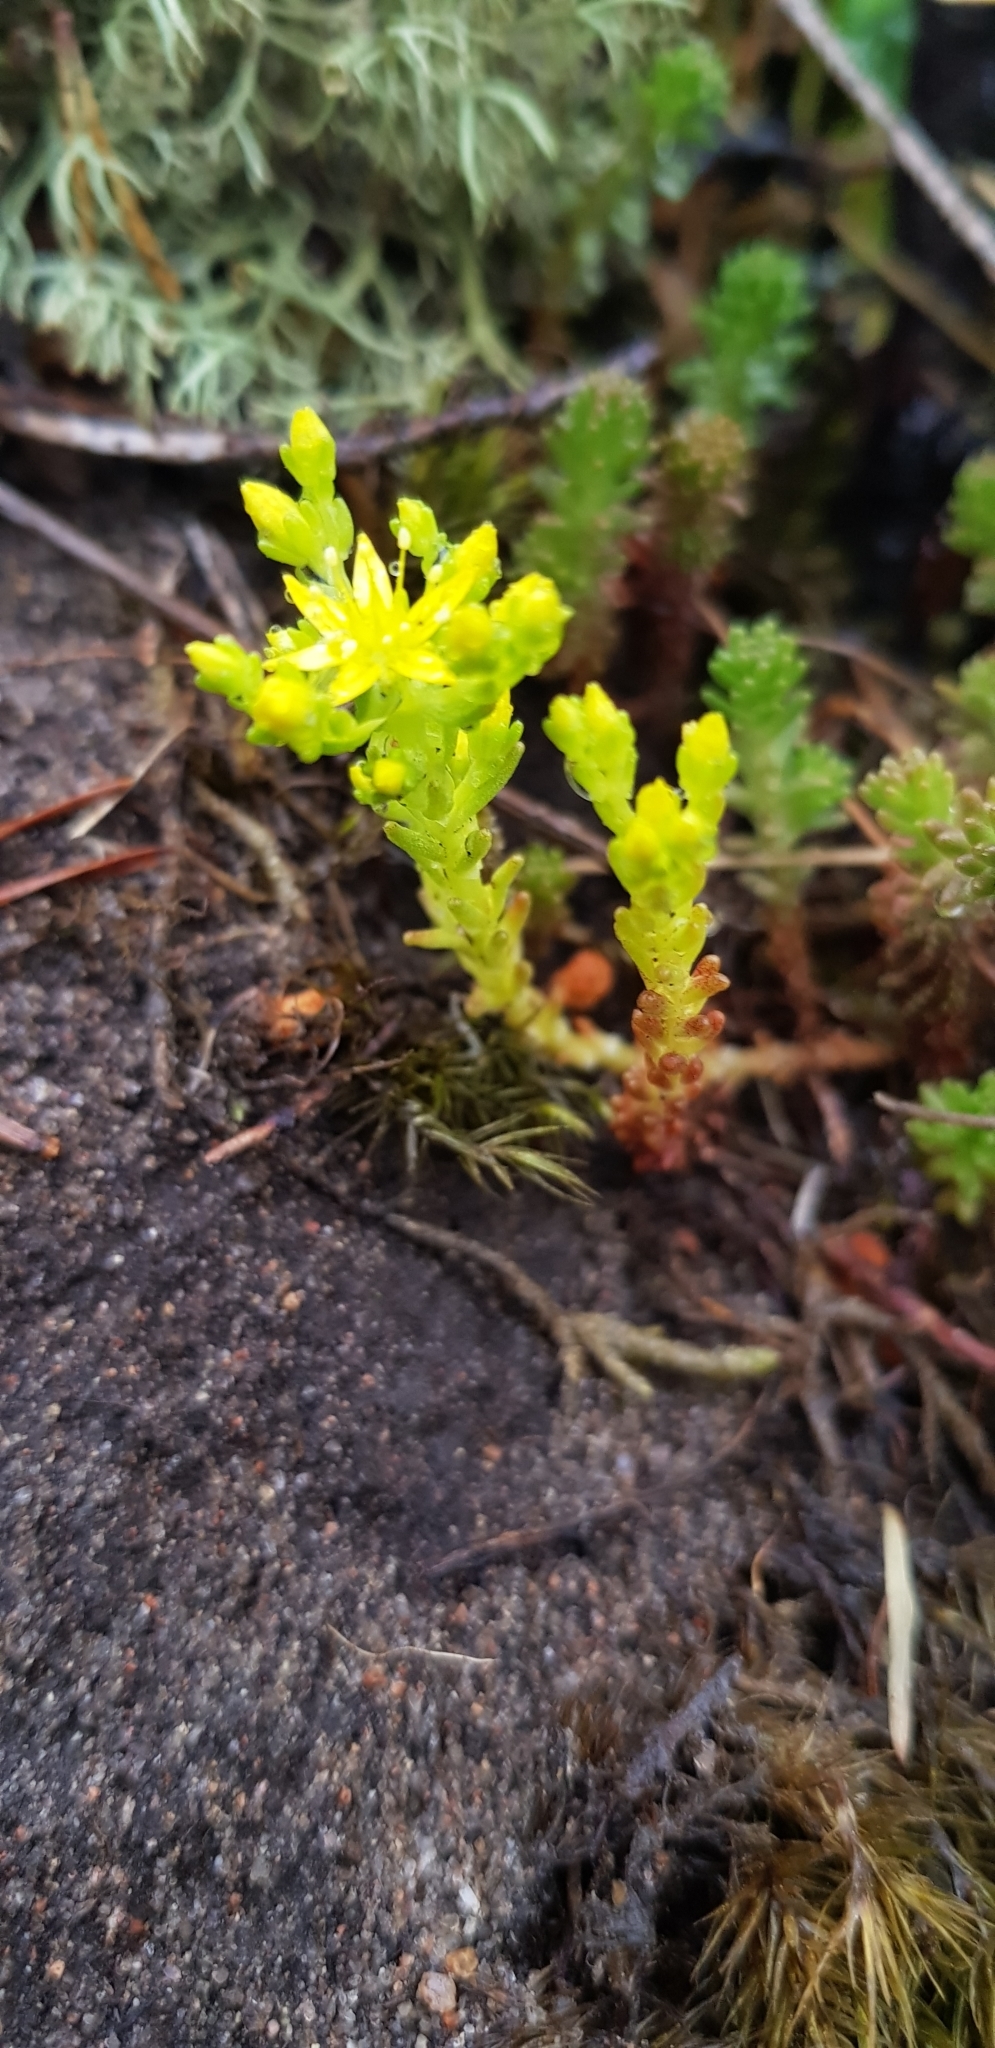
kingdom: Plantae
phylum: Tracheophyta
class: Magnoliopsida
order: Saxifragales
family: Crassulaceae
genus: Sedum
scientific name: Sedum sexangulare
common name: Tasteless stonecrop
